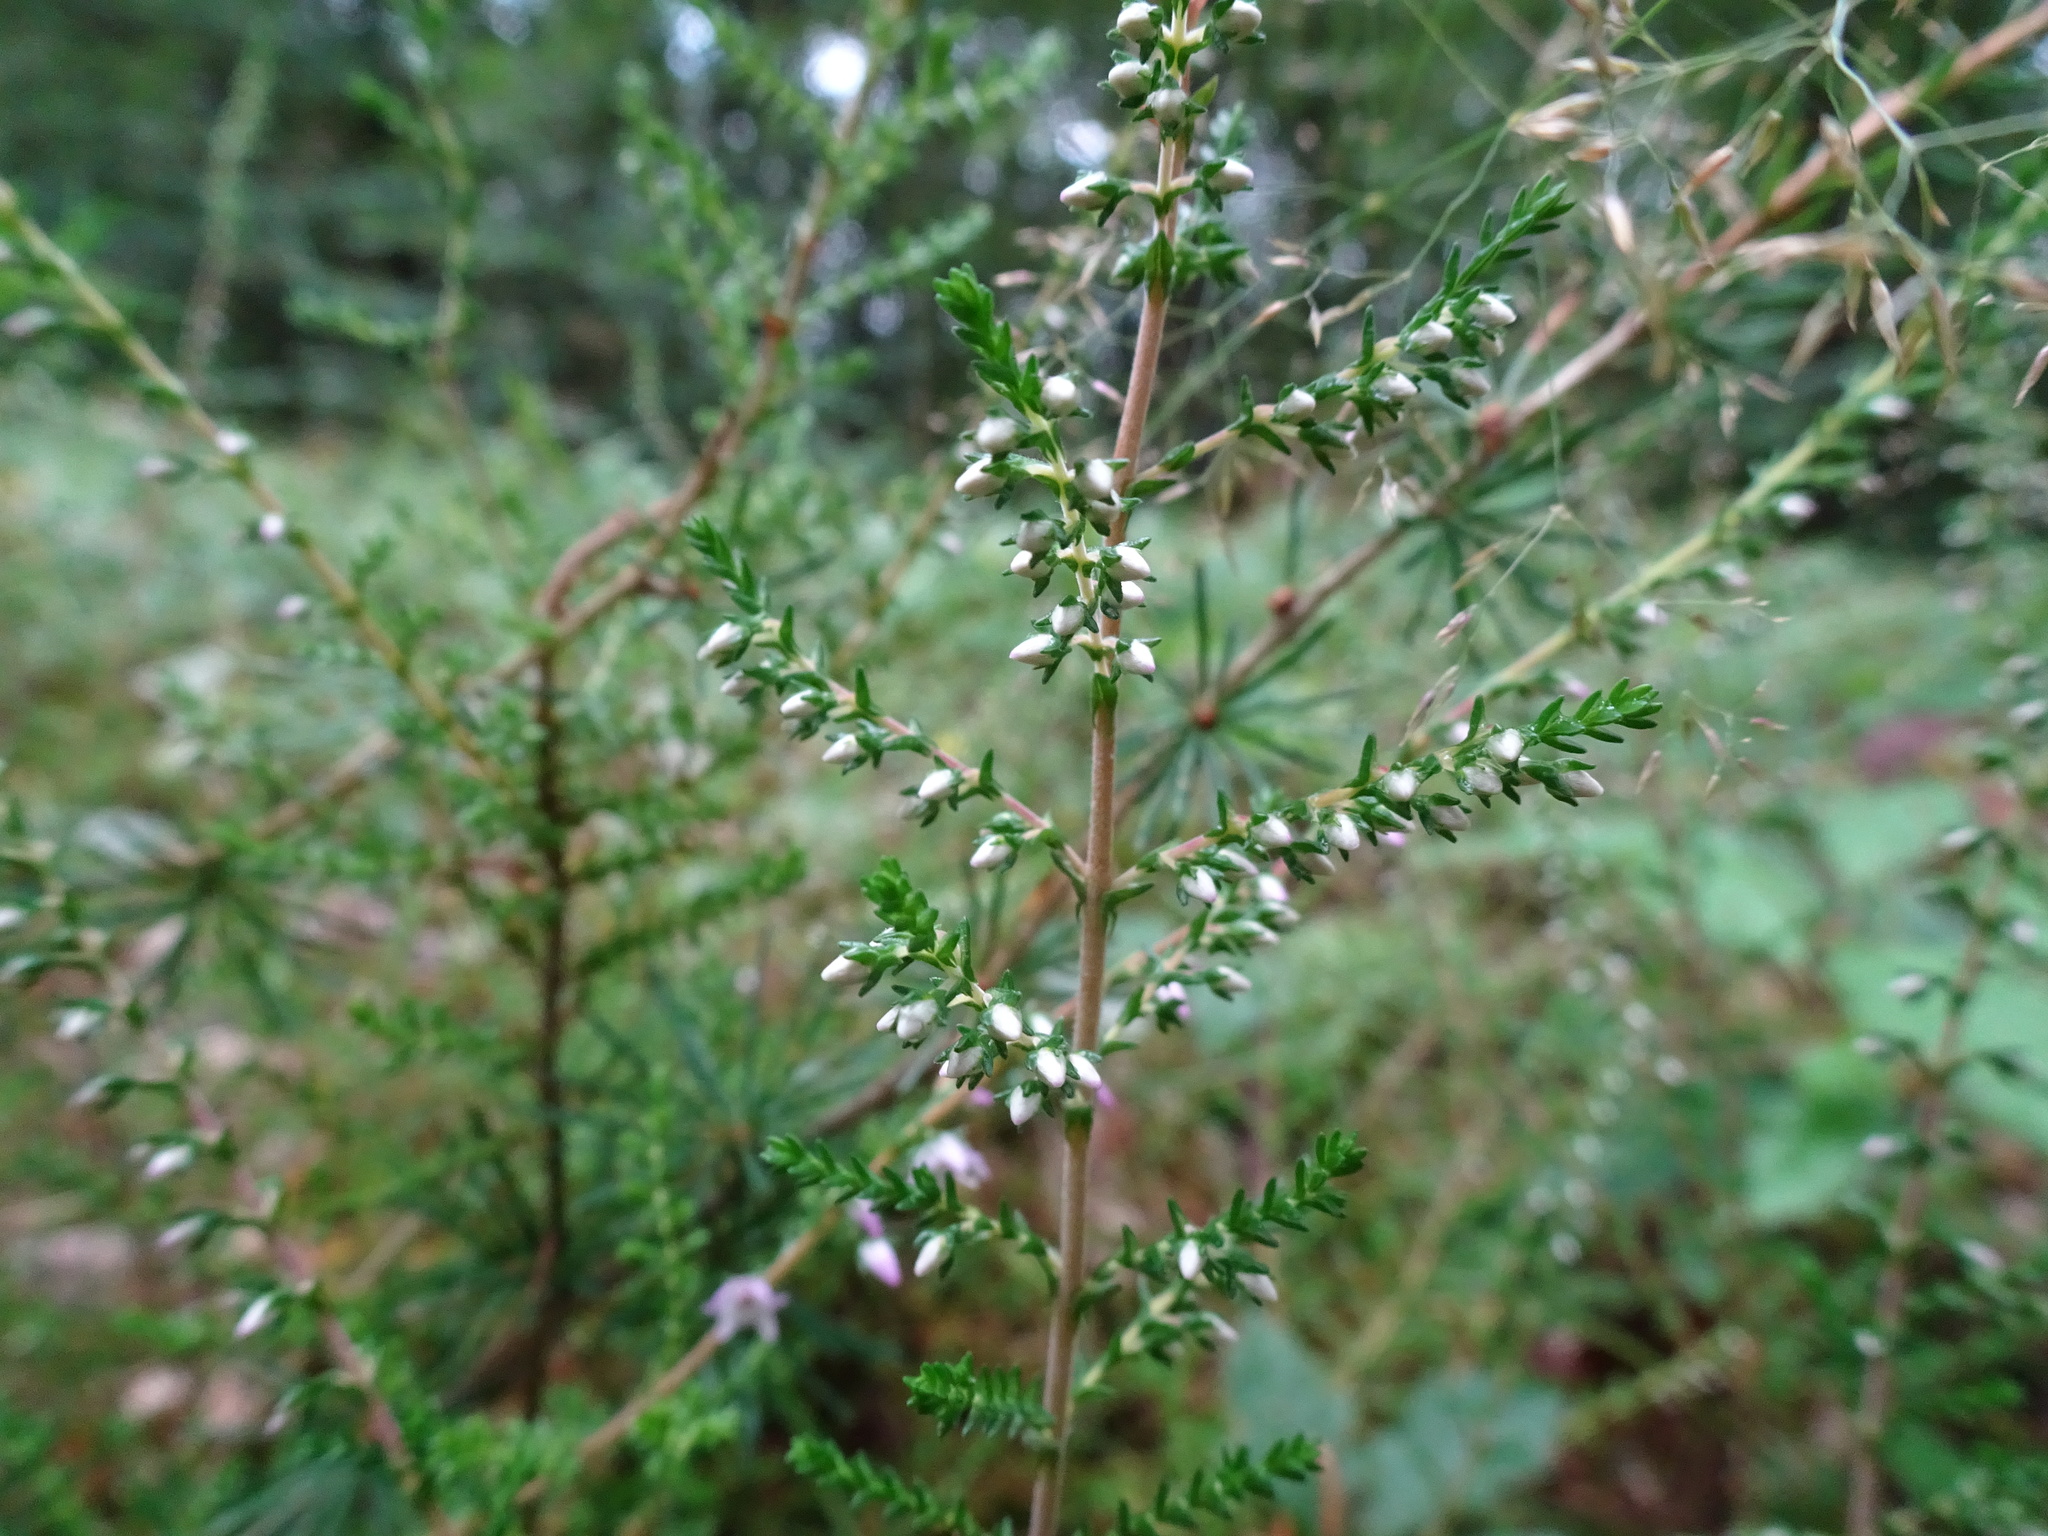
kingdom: Plantae
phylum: Tracheophyta
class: Magnoliopsida
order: Ericales
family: Ericaceae
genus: Calluna
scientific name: Calluna vulgaris
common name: Heather
